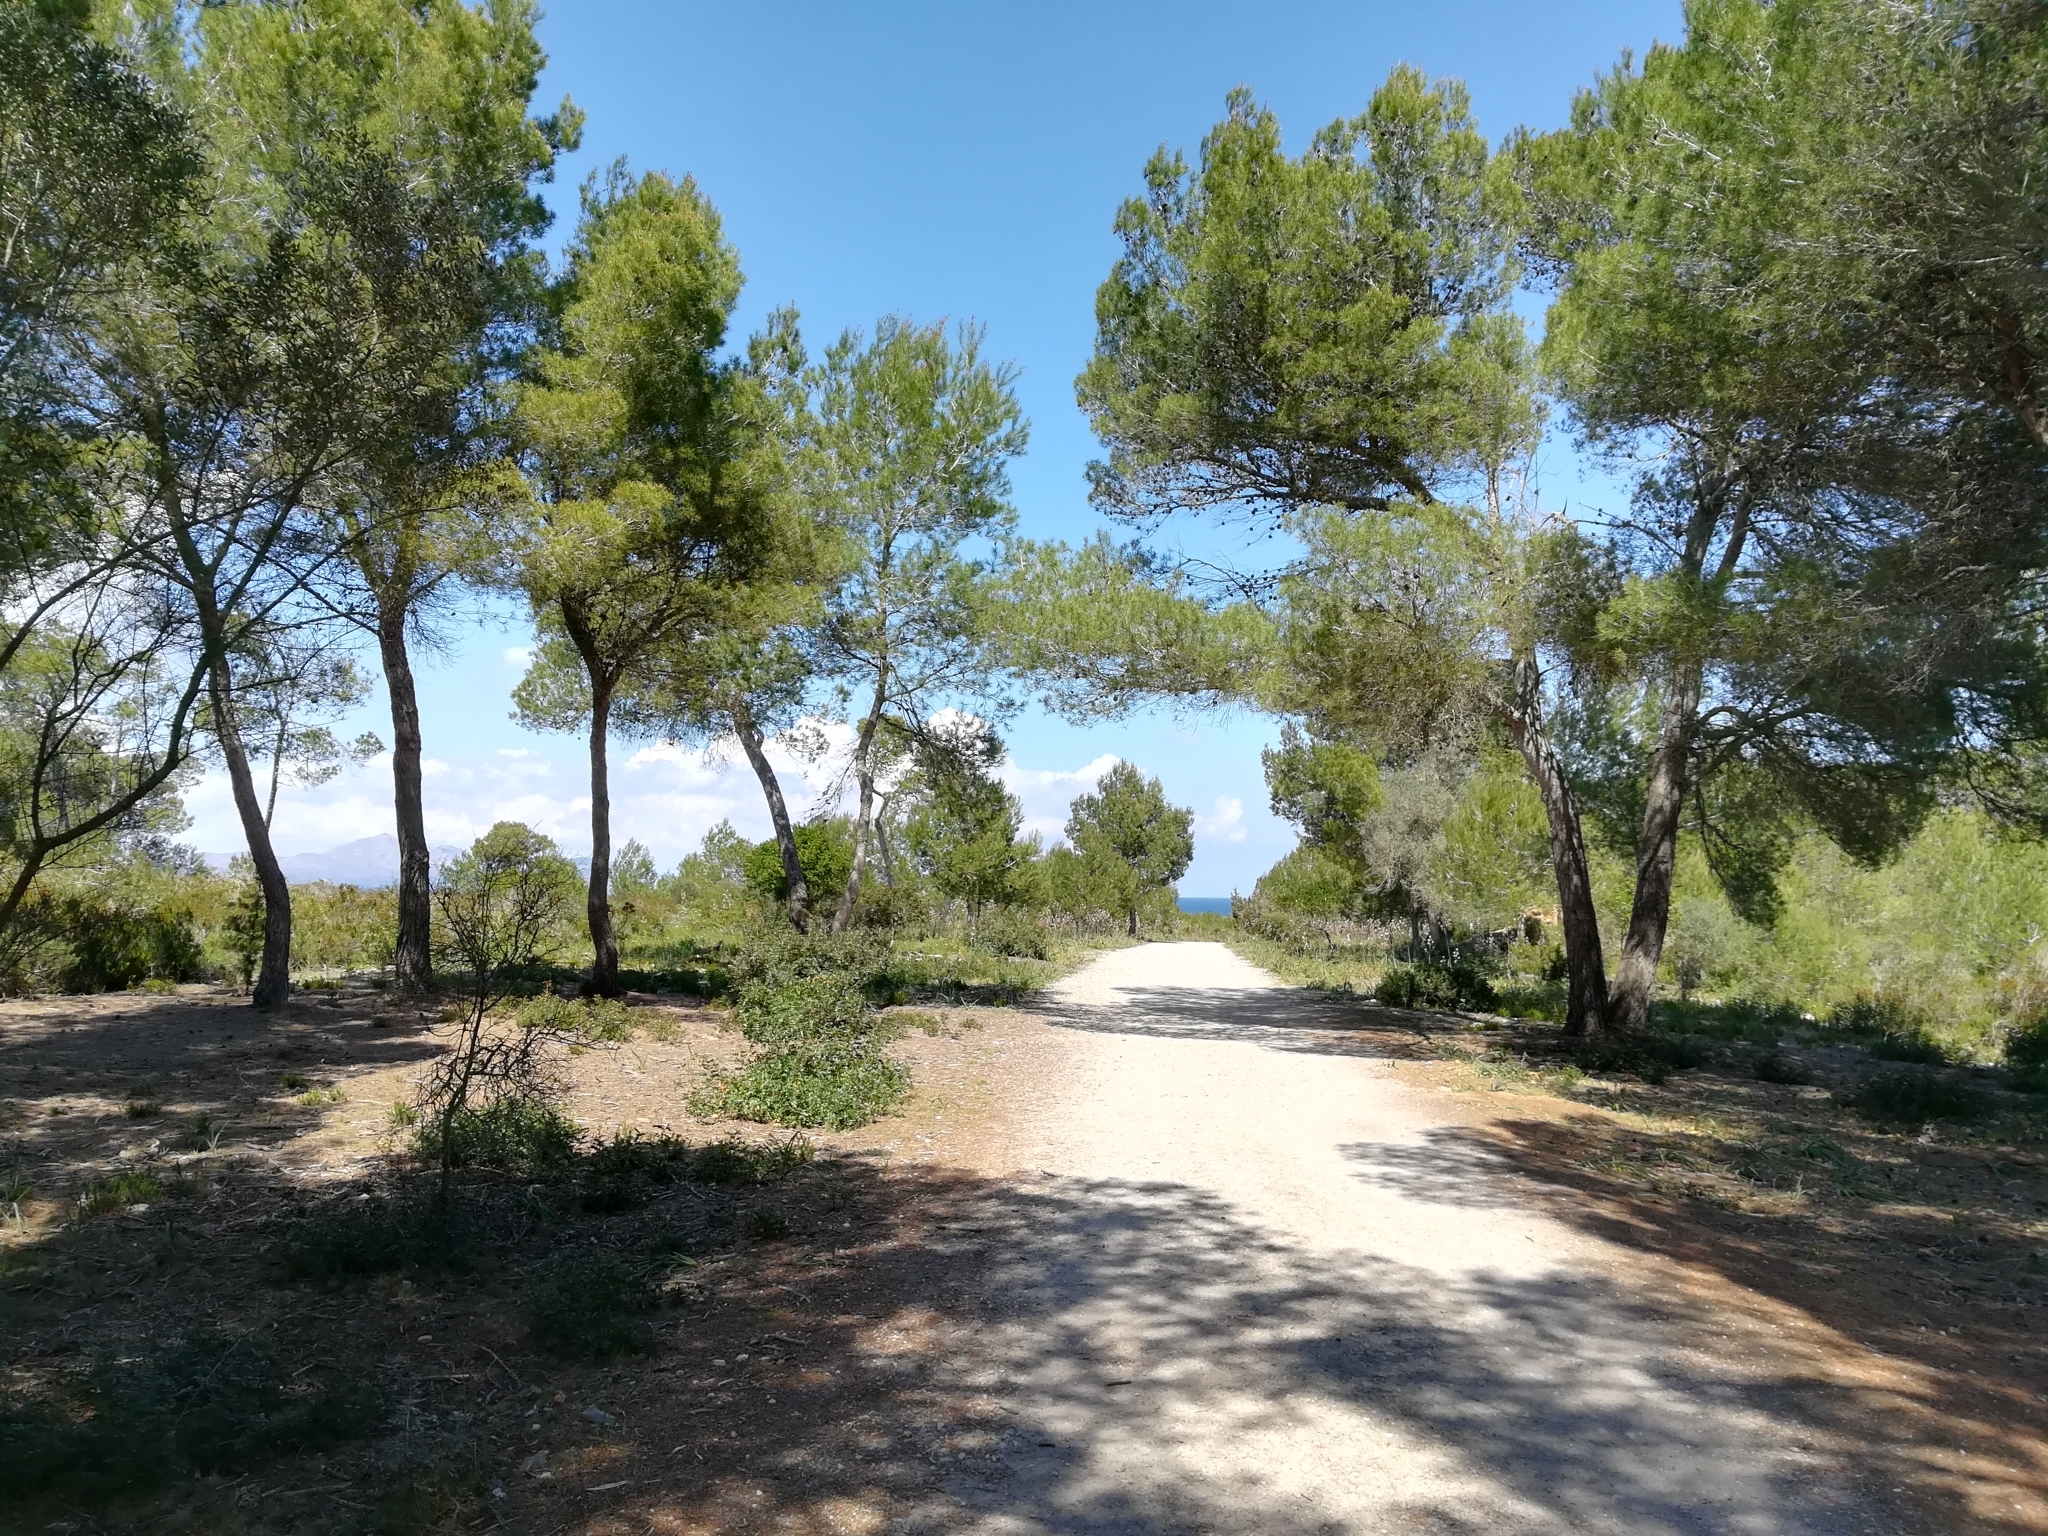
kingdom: Plantae
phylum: Tracheophyta
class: Pinopsida
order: Pinales
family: Pinaceae
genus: Pinus
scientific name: Pinus halepensis
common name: Aleppo pine
